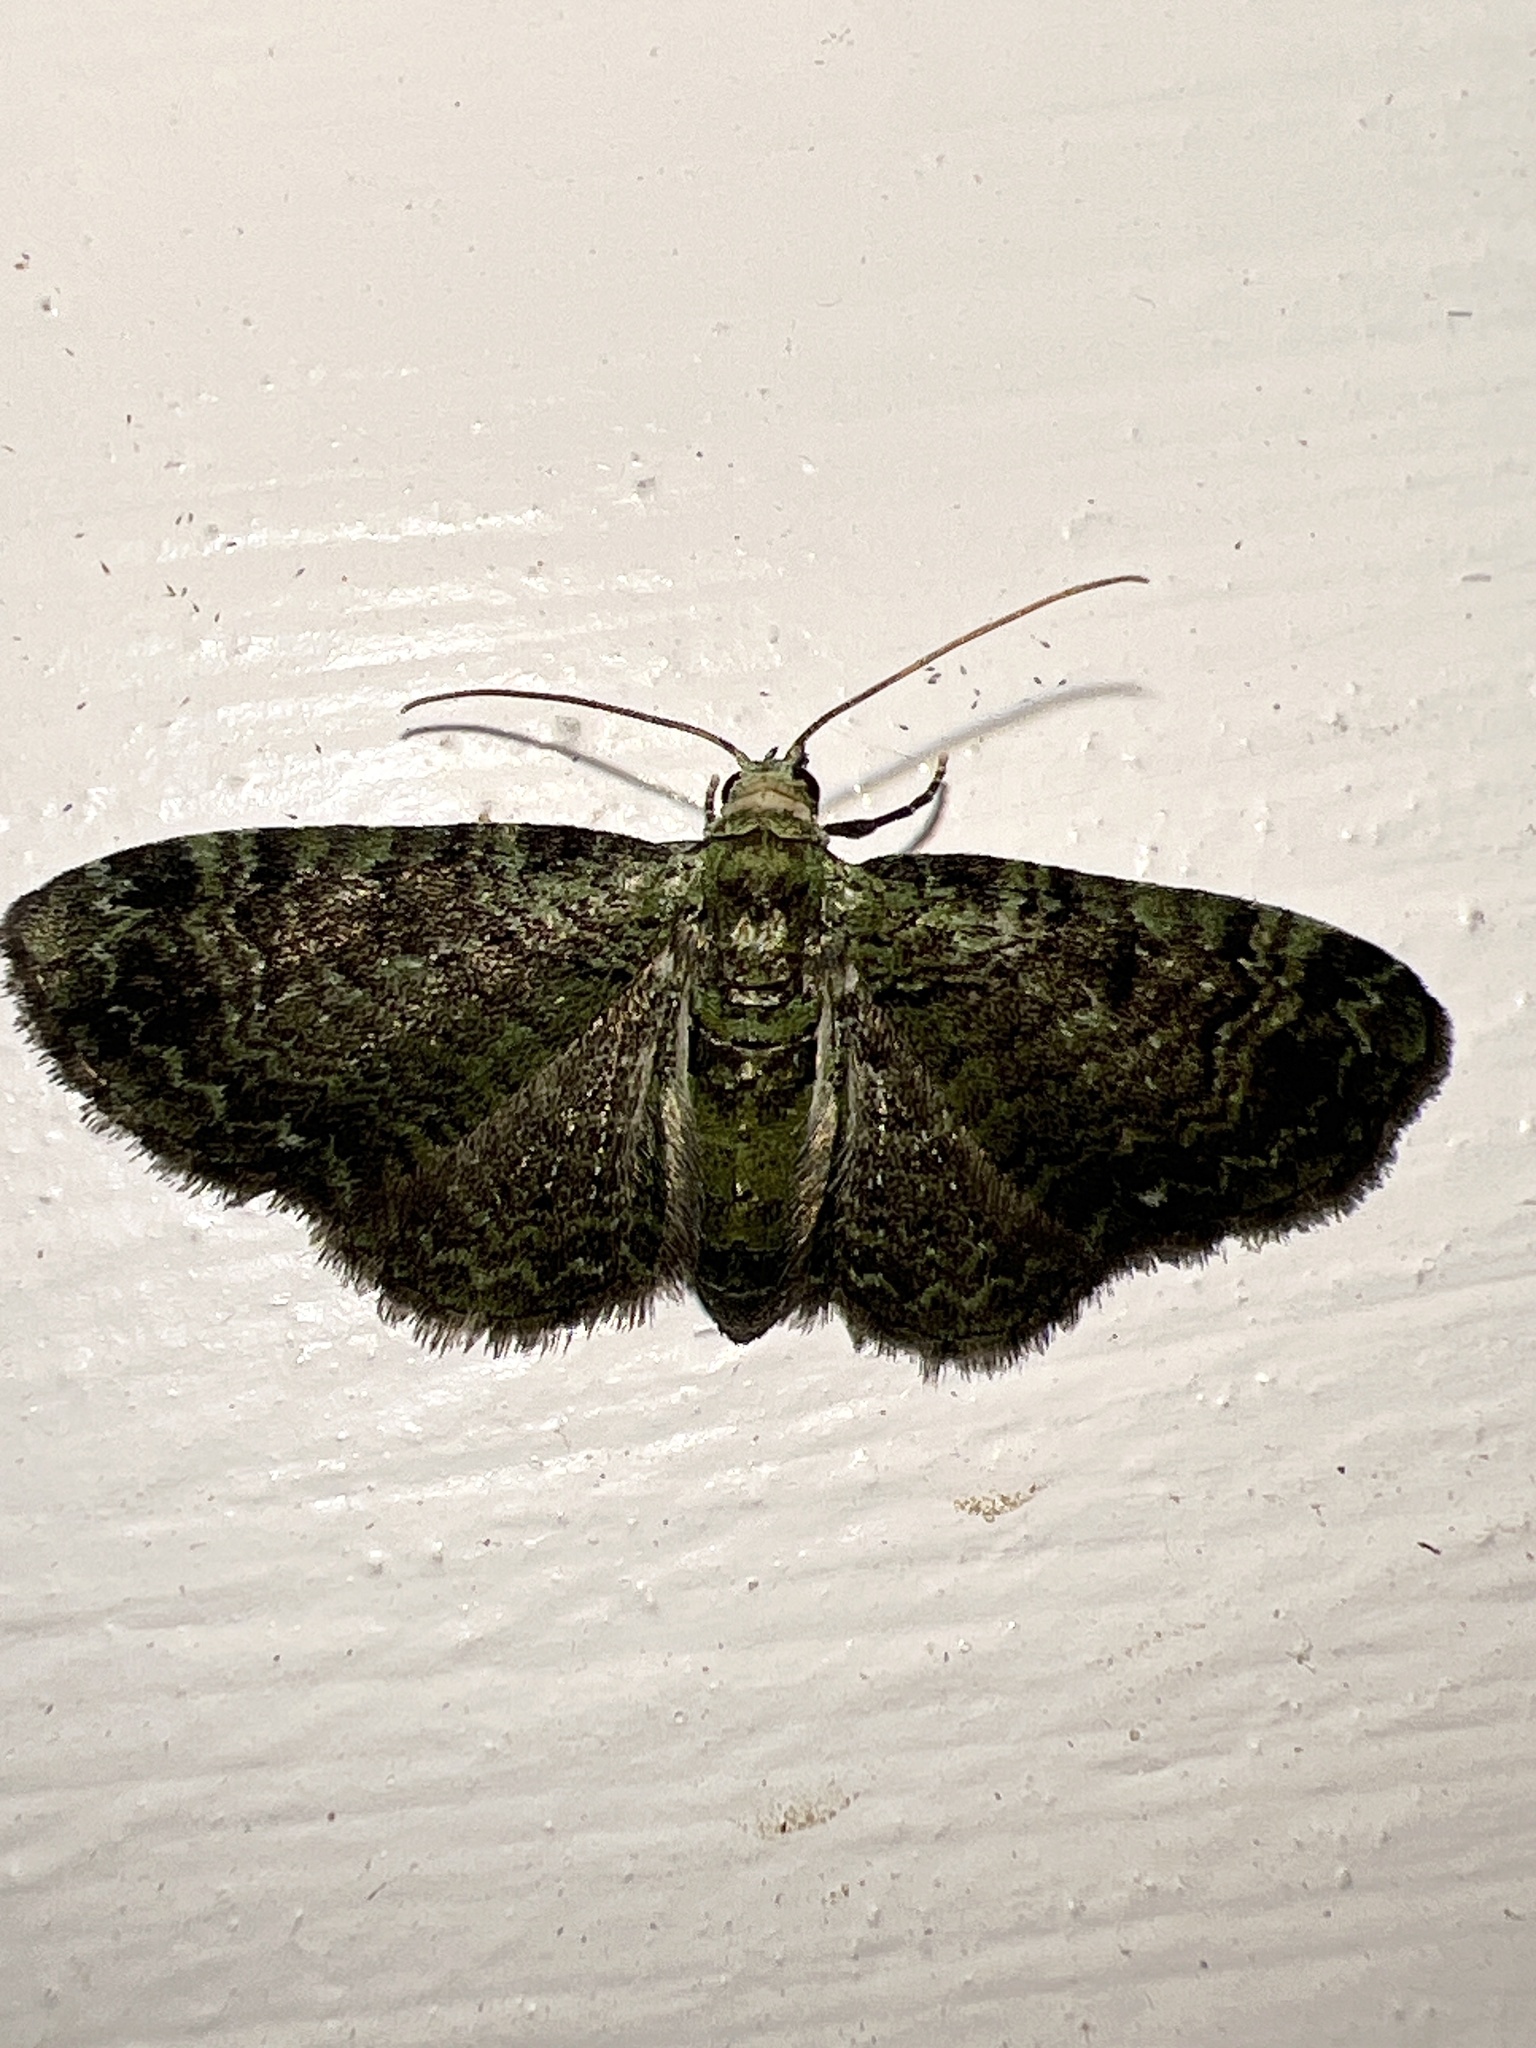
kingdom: Animalia
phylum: Arthropoda
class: Insecta
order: Lepidoptera
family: Geometridae
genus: Pasiphila
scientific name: Pasiphila rectangulata
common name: Green pug
